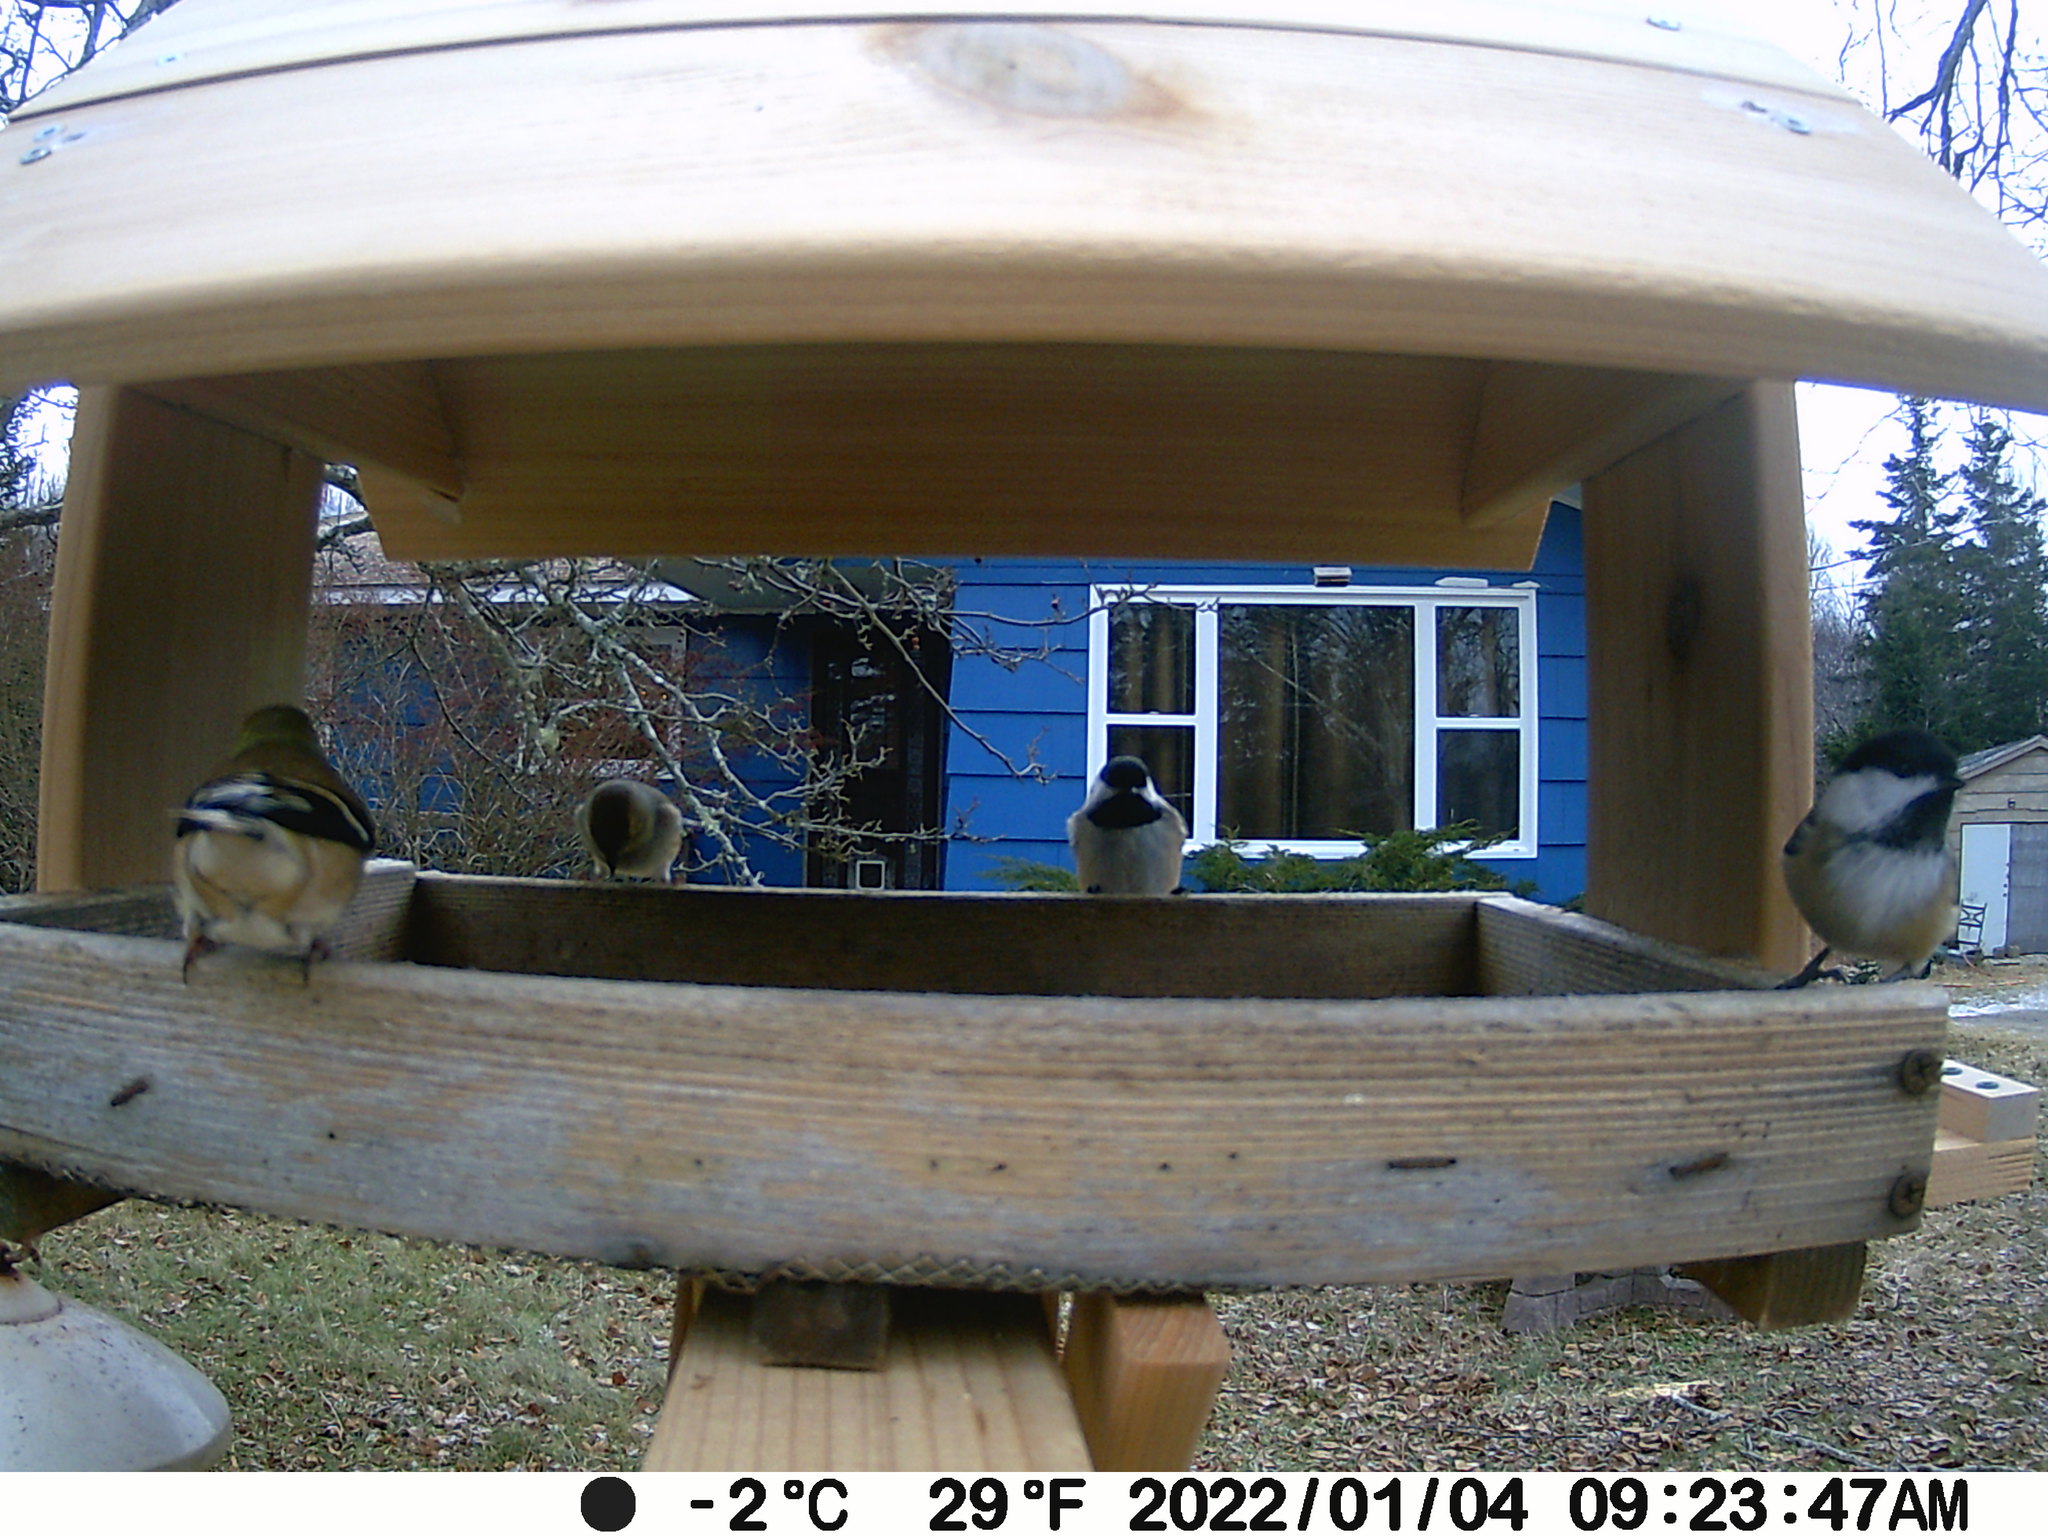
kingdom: Animalia
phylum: Chordata
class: Aves
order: Passeriformes
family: Fringillidae
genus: Spinus
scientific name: Spinus tristis
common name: American goldfinch
